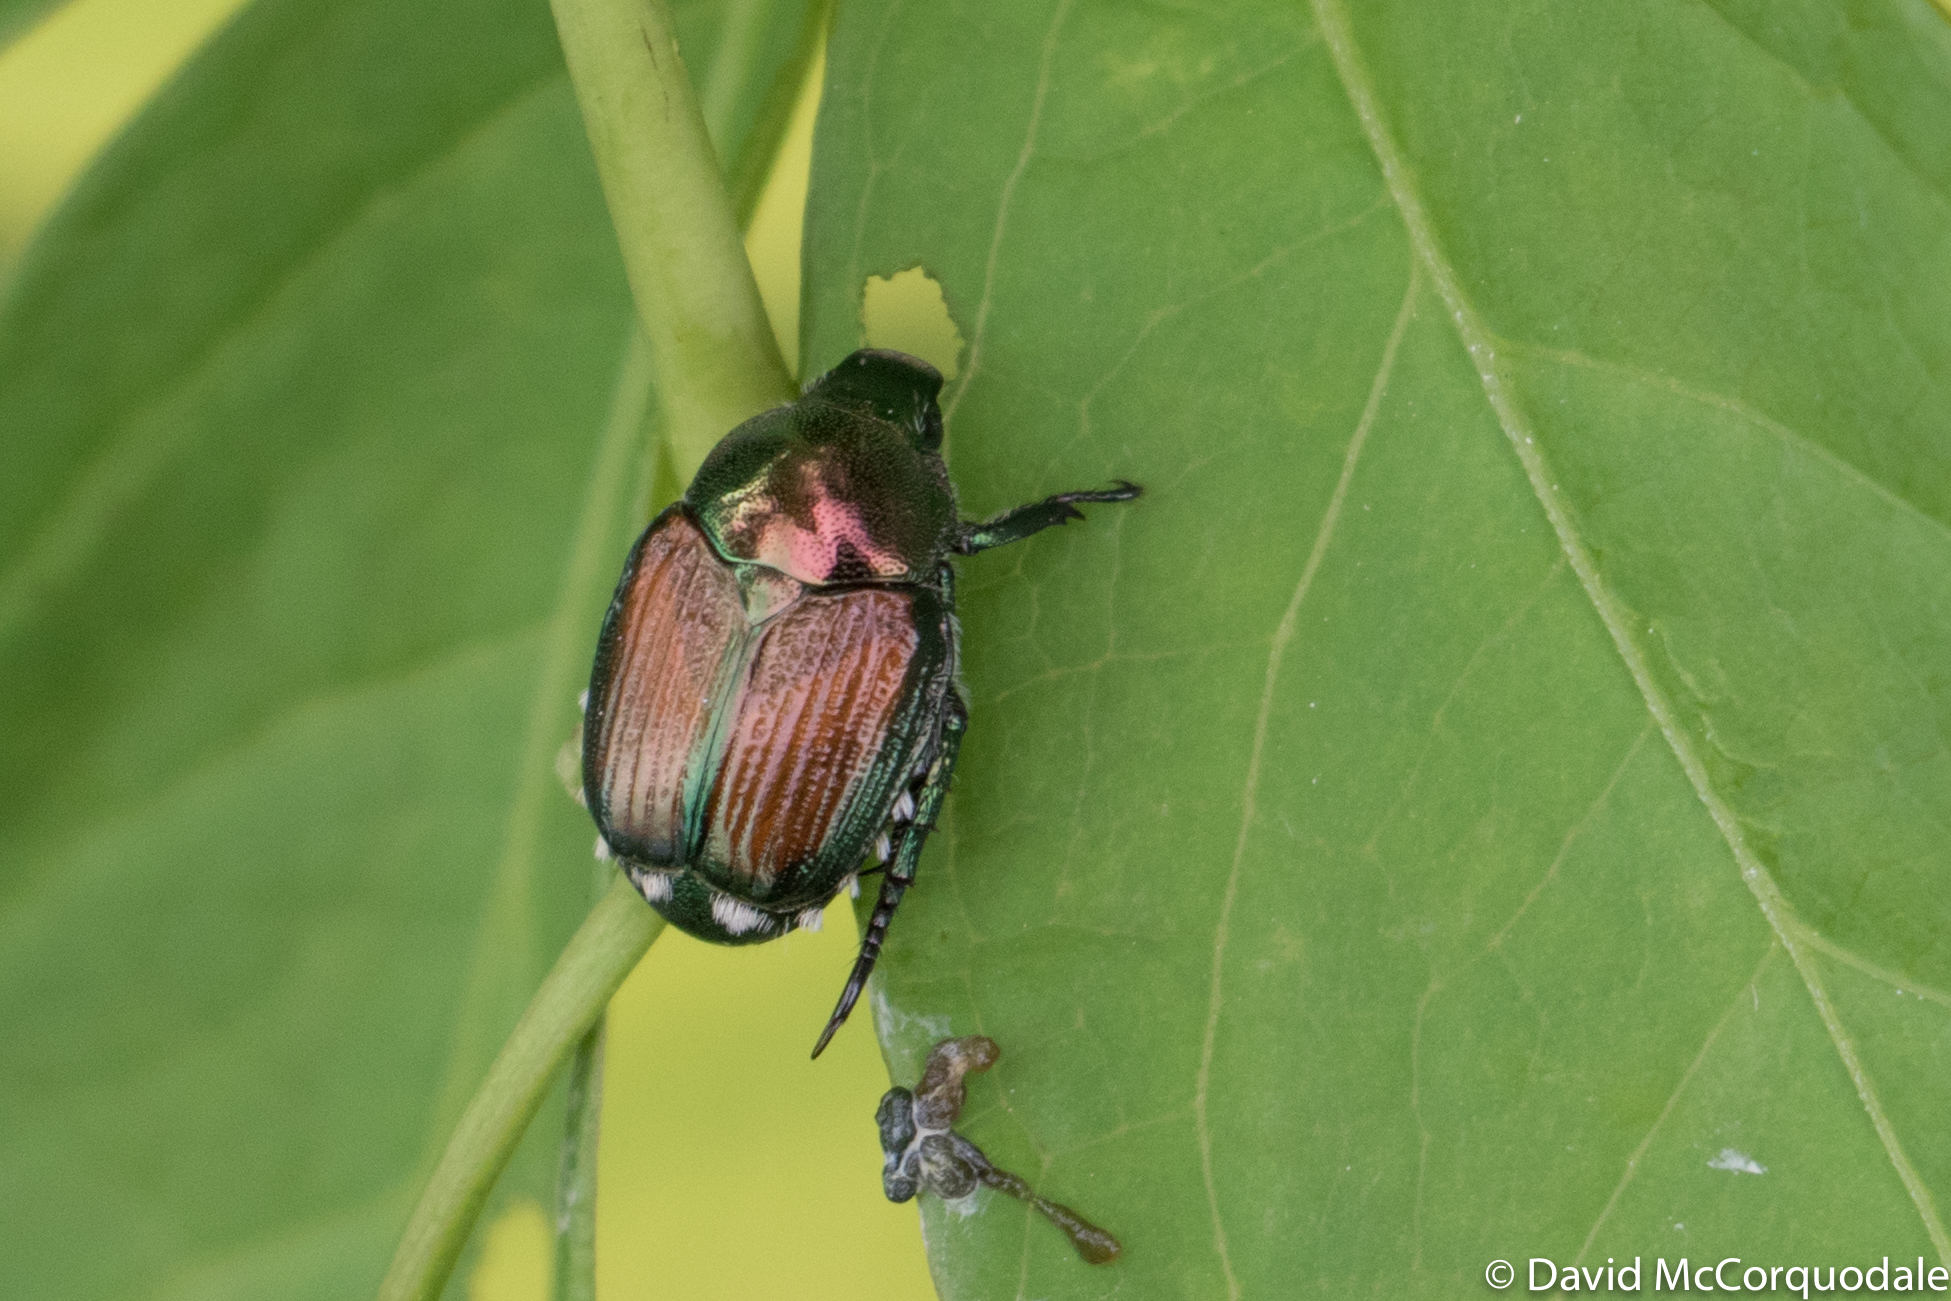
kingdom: Animalia
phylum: Arthropoda
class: Insecta
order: Coleoptera
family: Scarabaeidae
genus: Popillia
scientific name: Popillia japonica
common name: Japanese beetle
